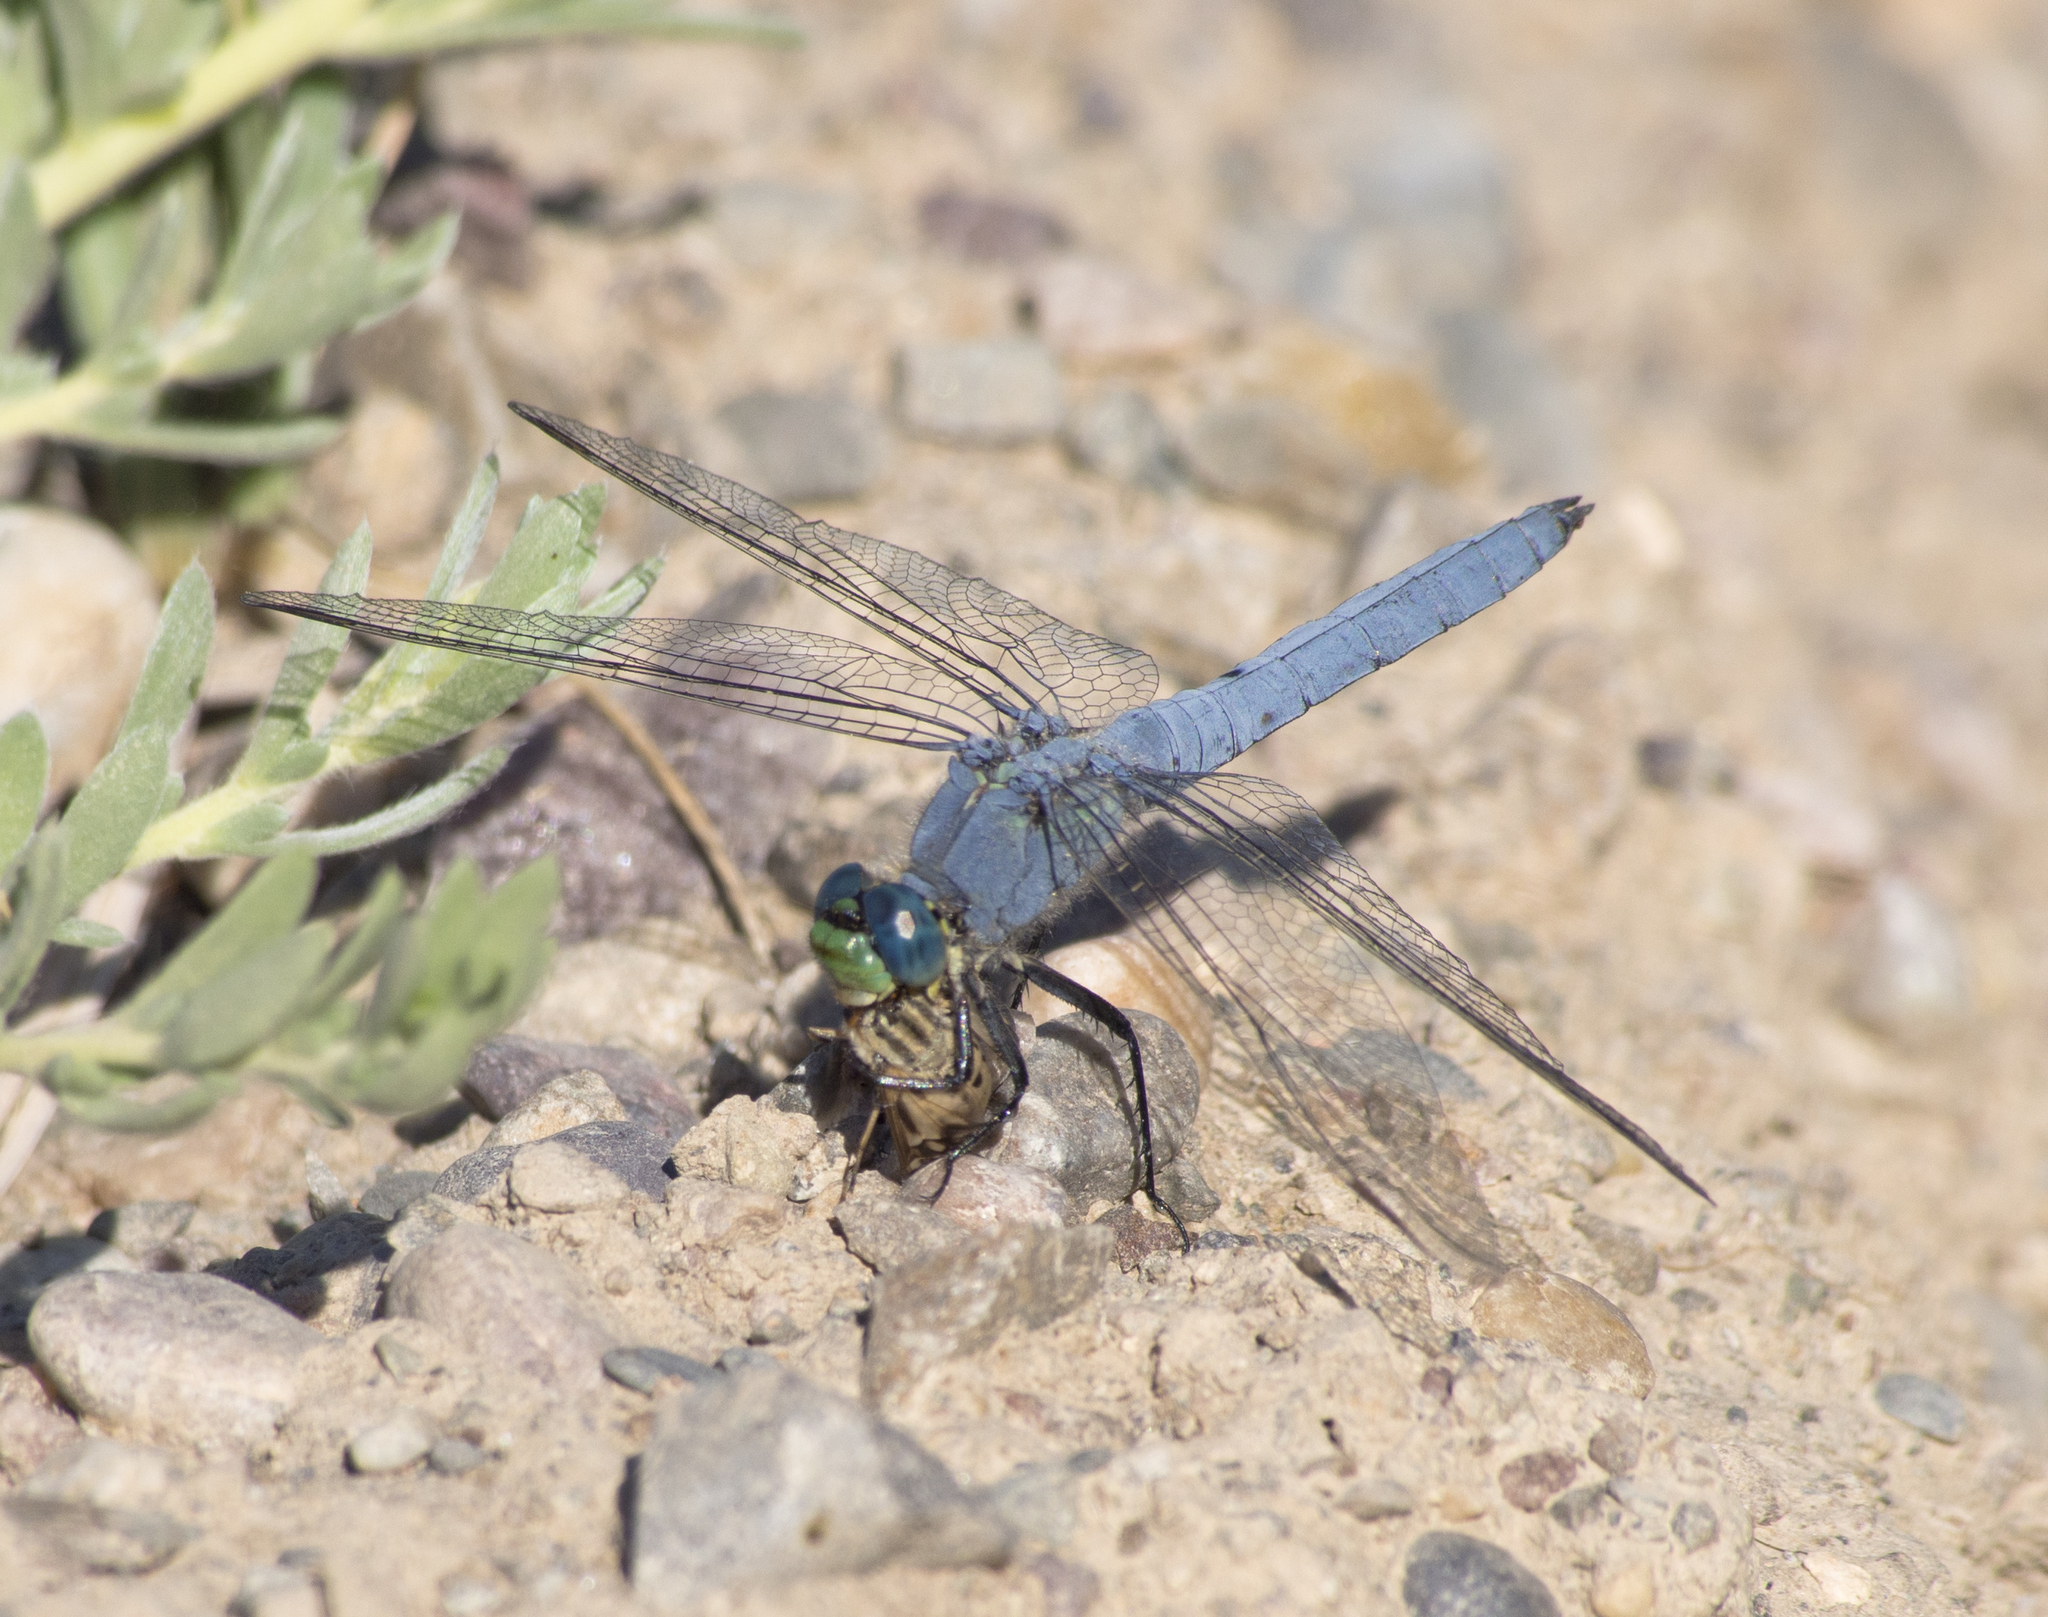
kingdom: Animalia
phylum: Arthropoda
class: Insecta
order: Odonata
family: Libellulidae
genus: Erythemis
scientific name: Erythemis collocata
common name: Western pondhawk
